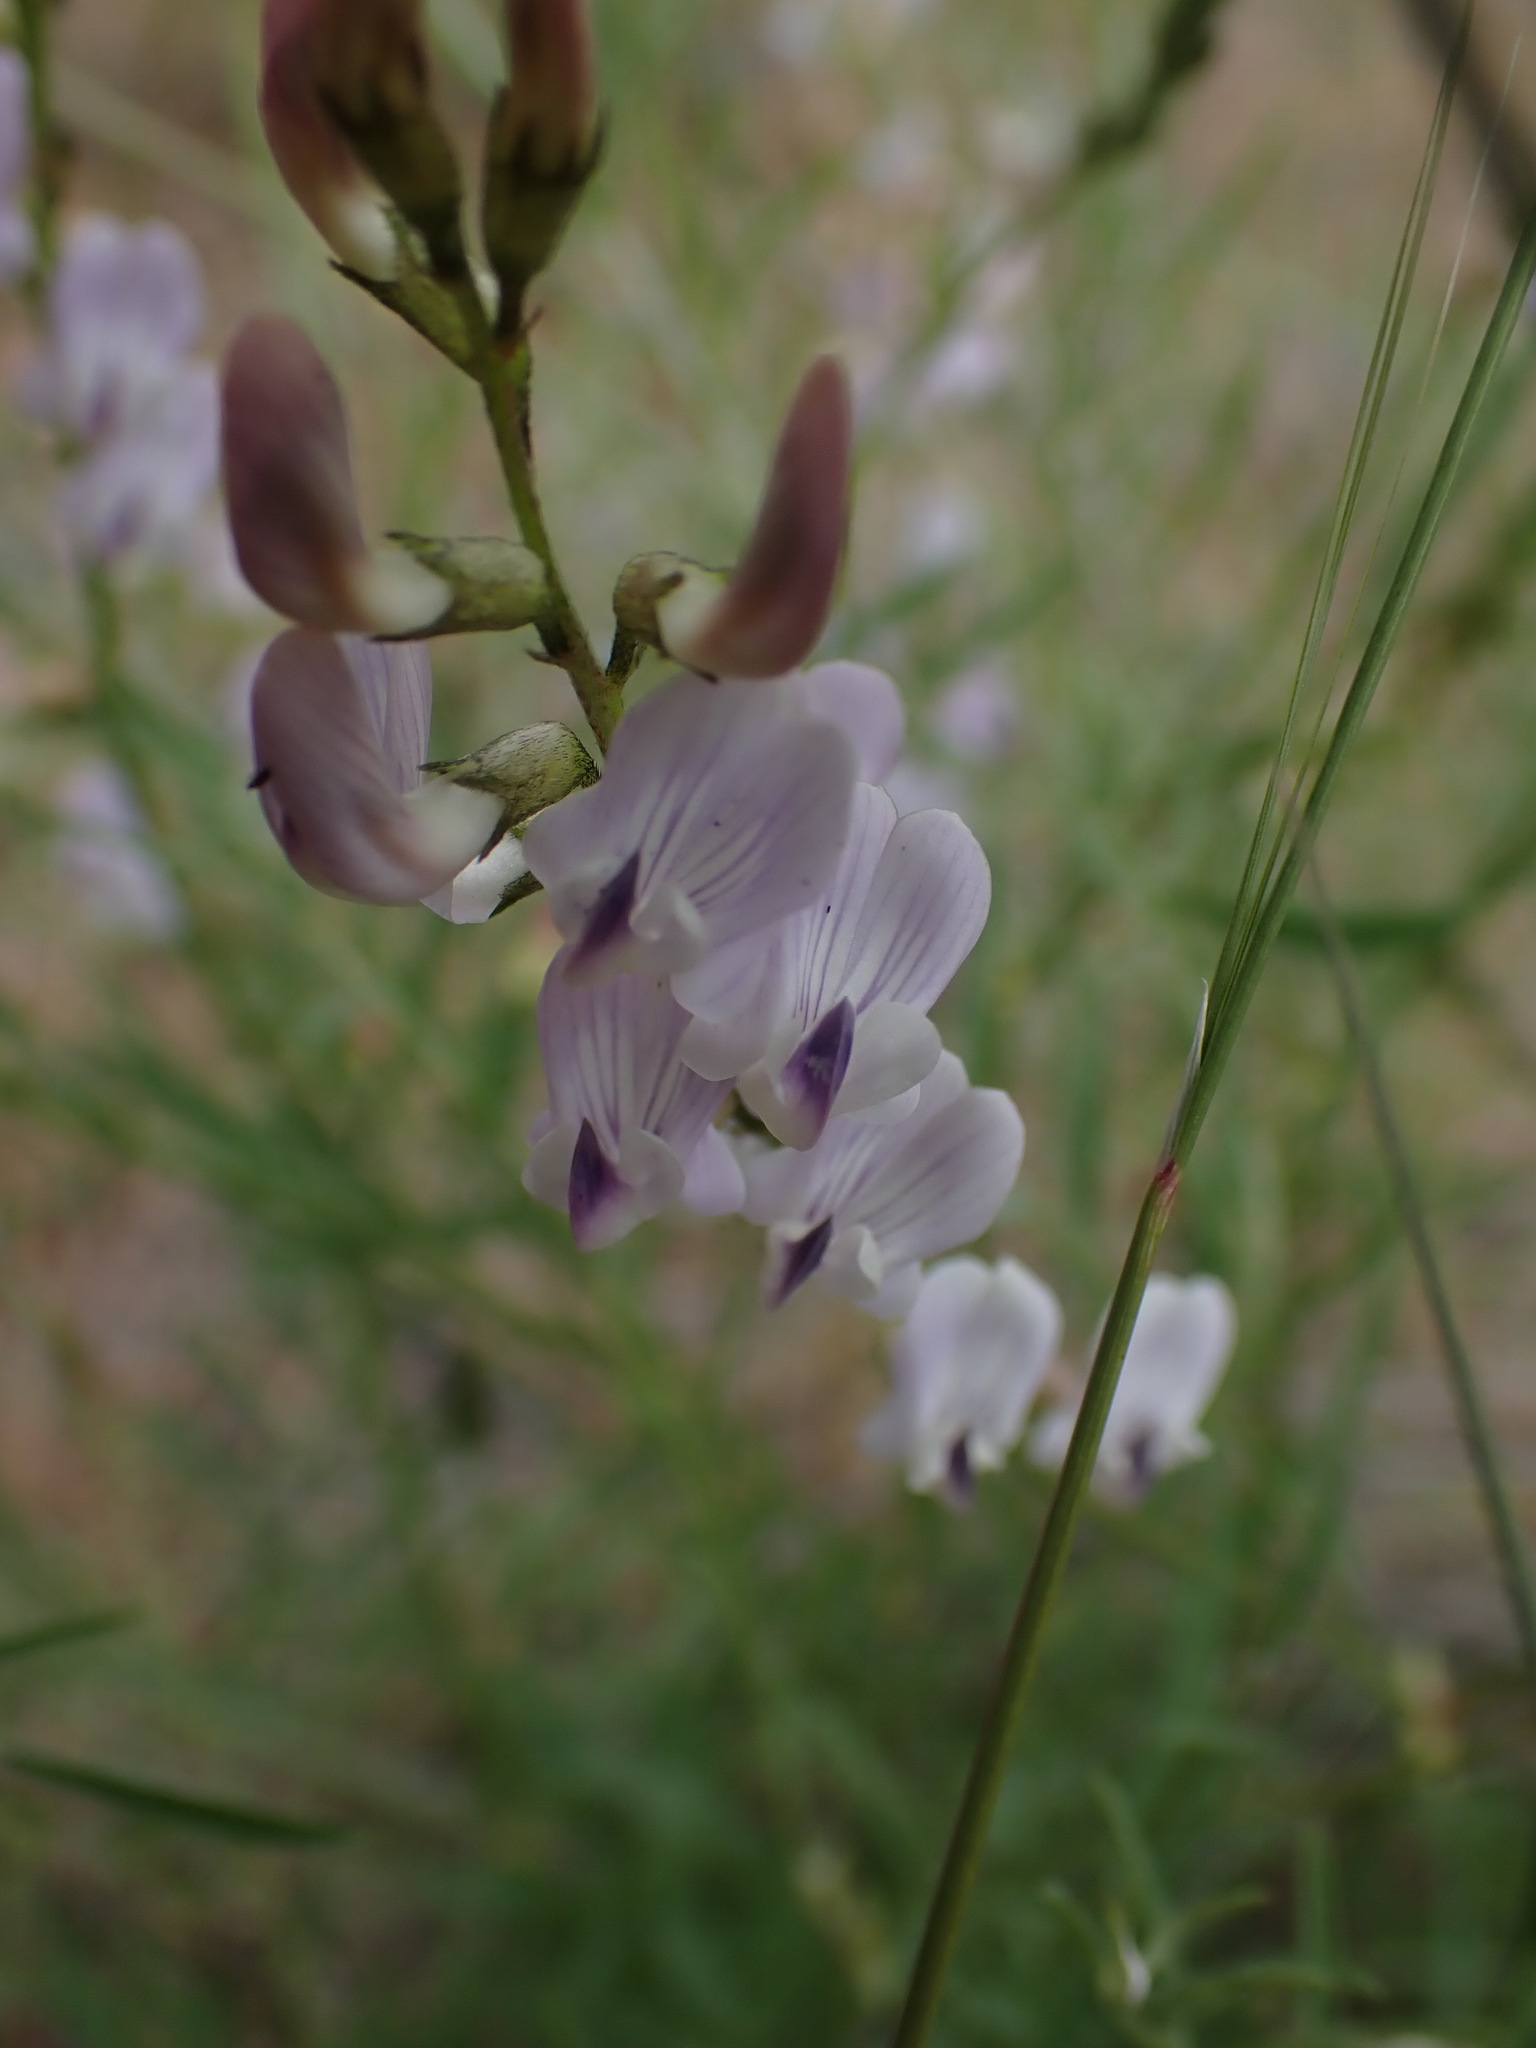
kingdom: Plantae
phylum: Tracheophyta
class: Magnoliopsida
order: Fabales
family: Fabaceae
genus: Astragalus
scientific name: Astragalus miser
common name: Timber milkvetch
